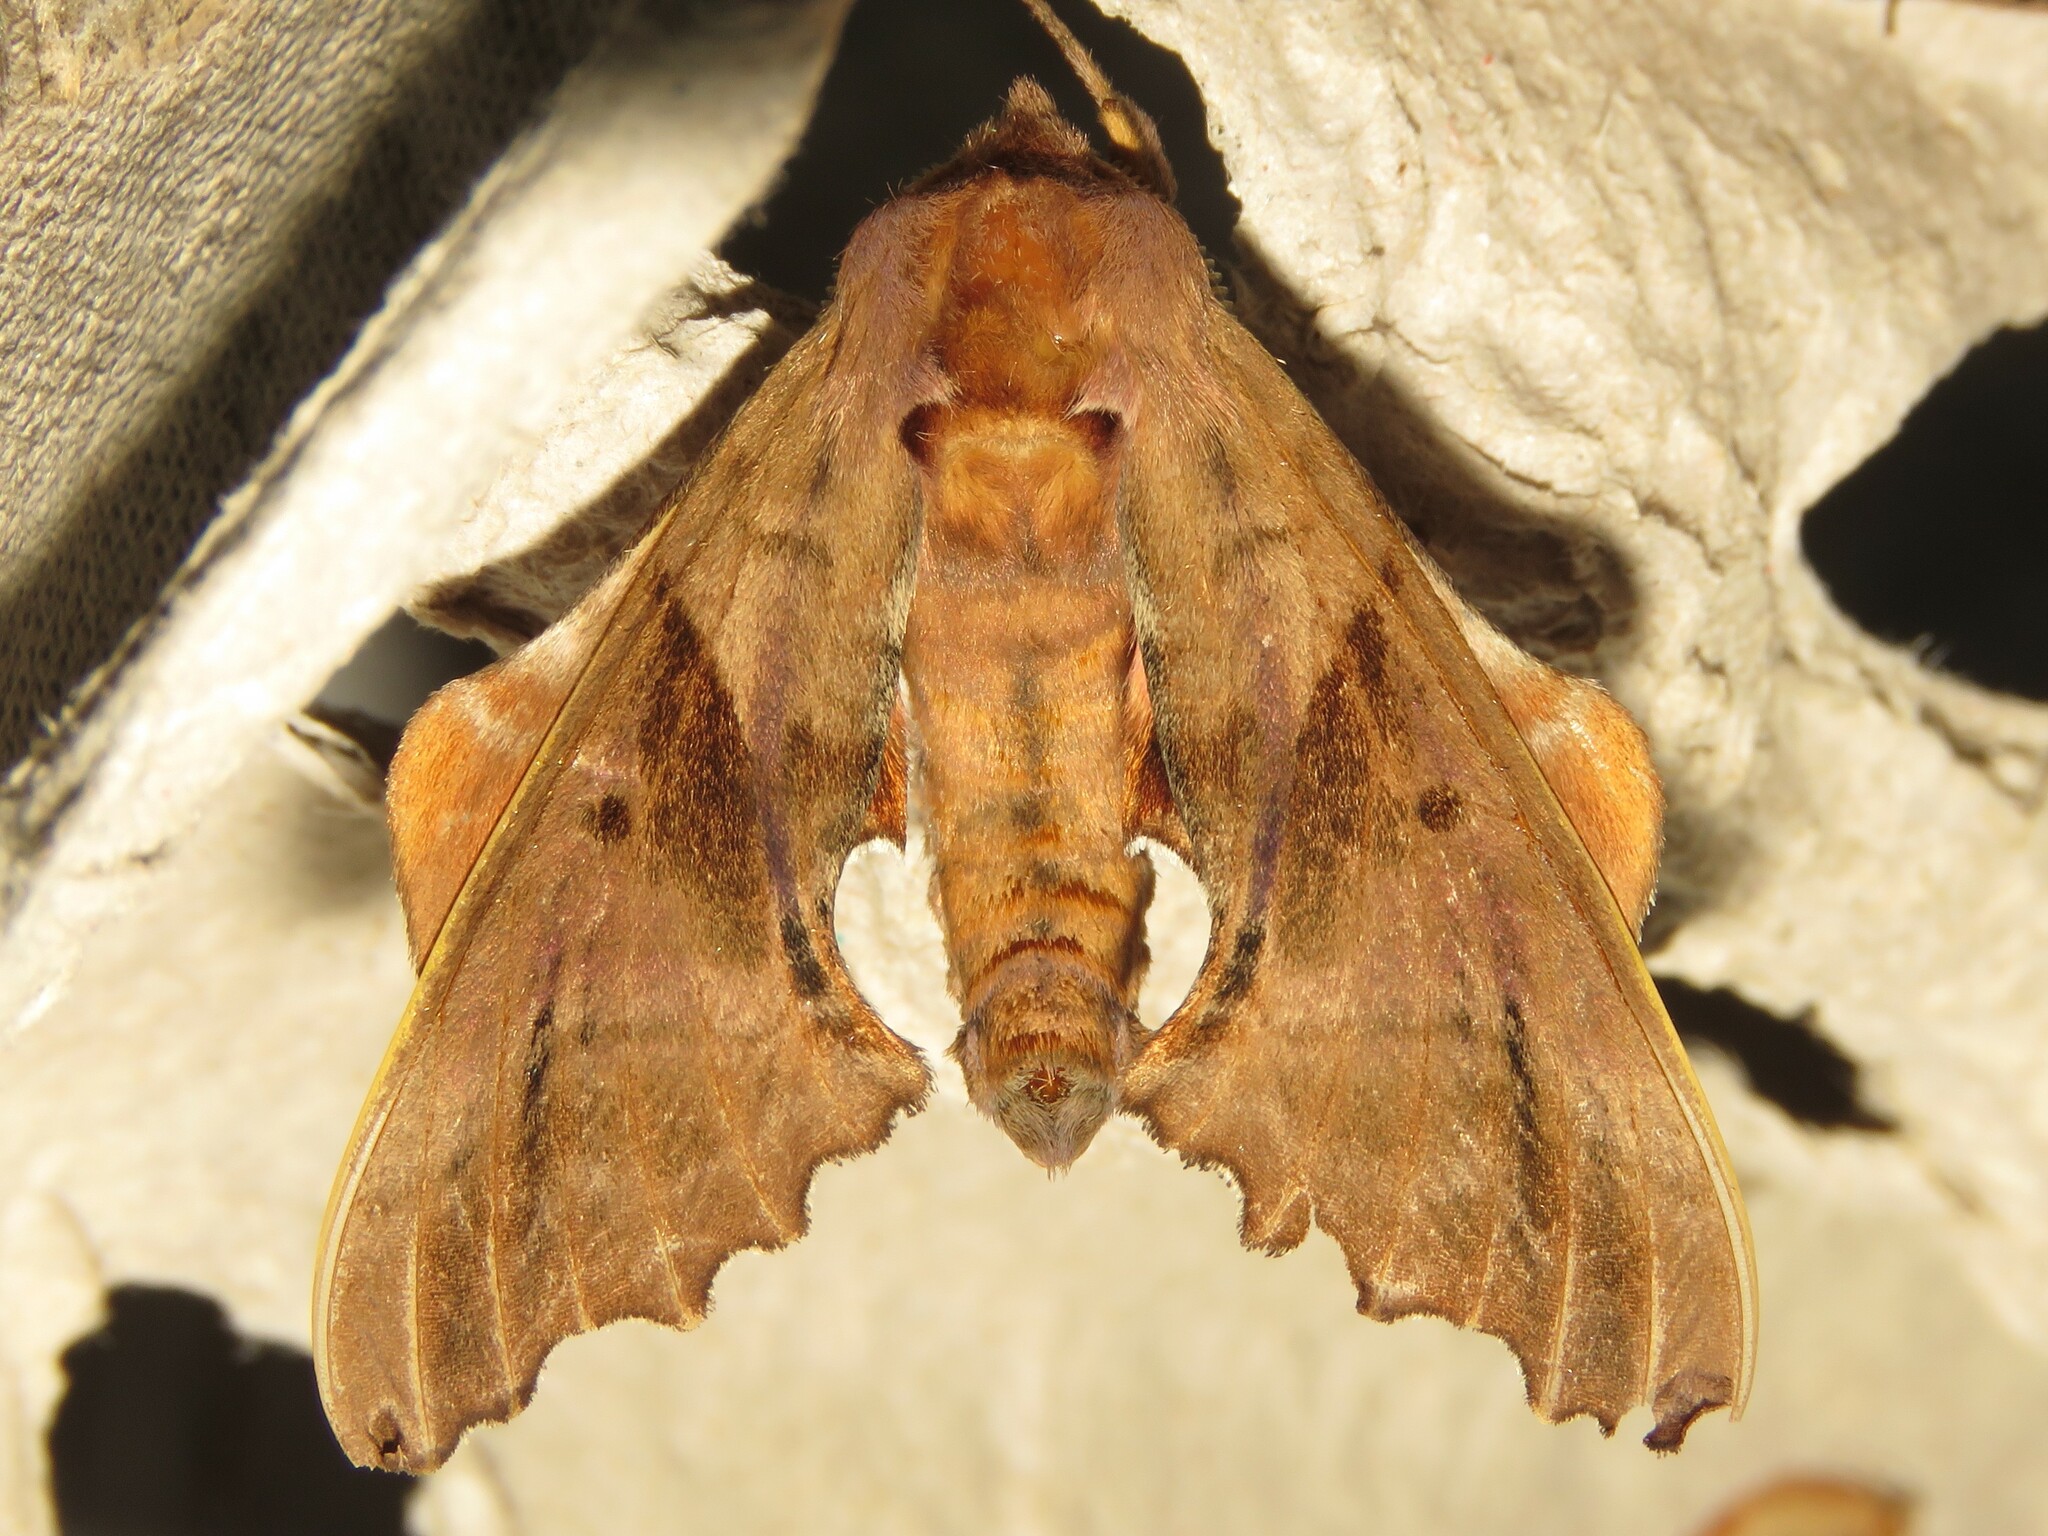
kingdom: Animalia
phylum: Arthropoda
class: Insecta
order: Lepidoptera
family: Sphingidae
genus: Paonias
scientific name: Paonias excaecata
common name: Blind-eyed sphinx
